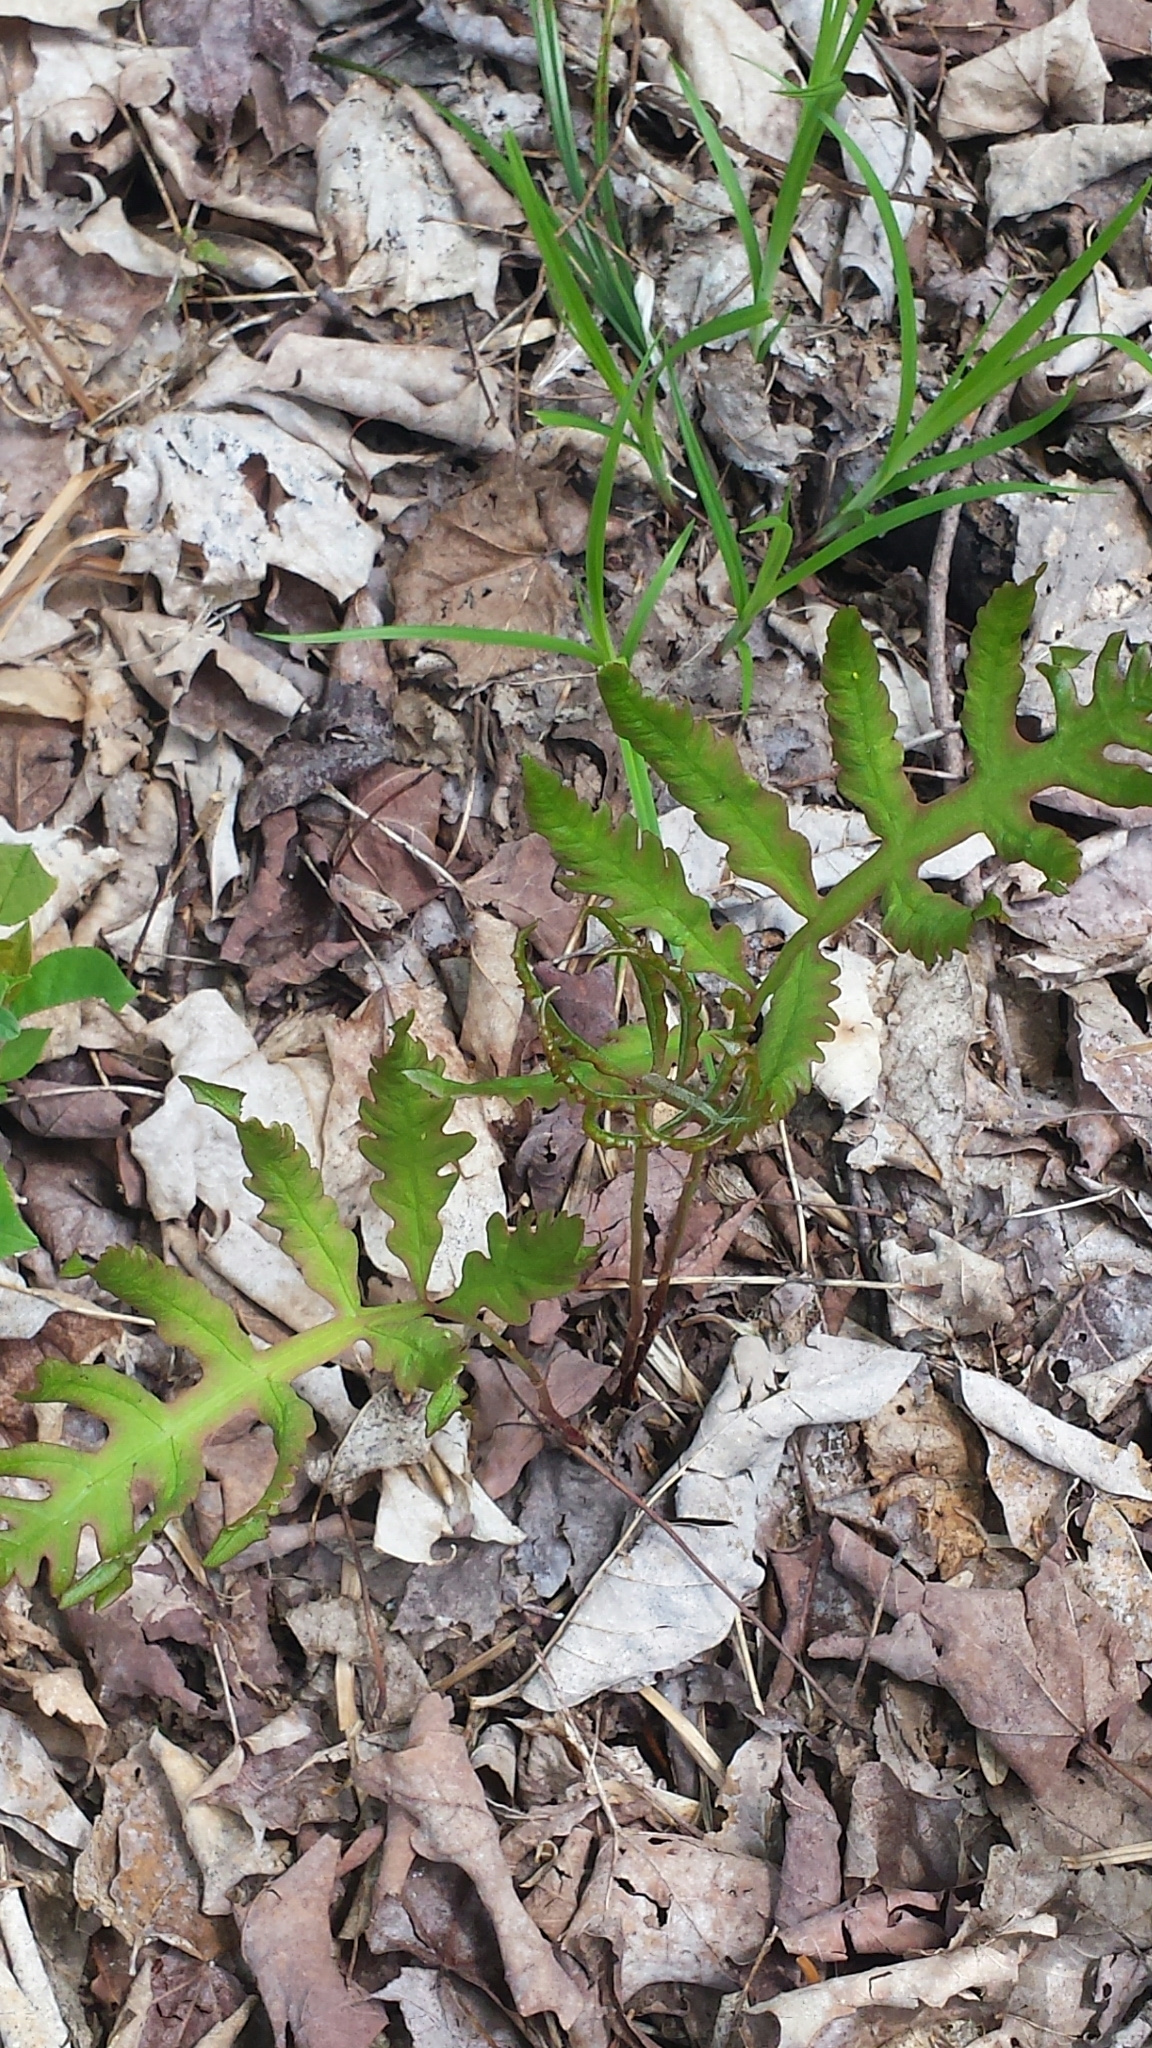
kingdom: Plantae
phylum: Tracheophyta
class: Polypodiopsida
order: Polypodiales
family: Onocleaceae
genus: Onoclea
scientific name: Onoclea sensibilis
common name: Sensitive fern
